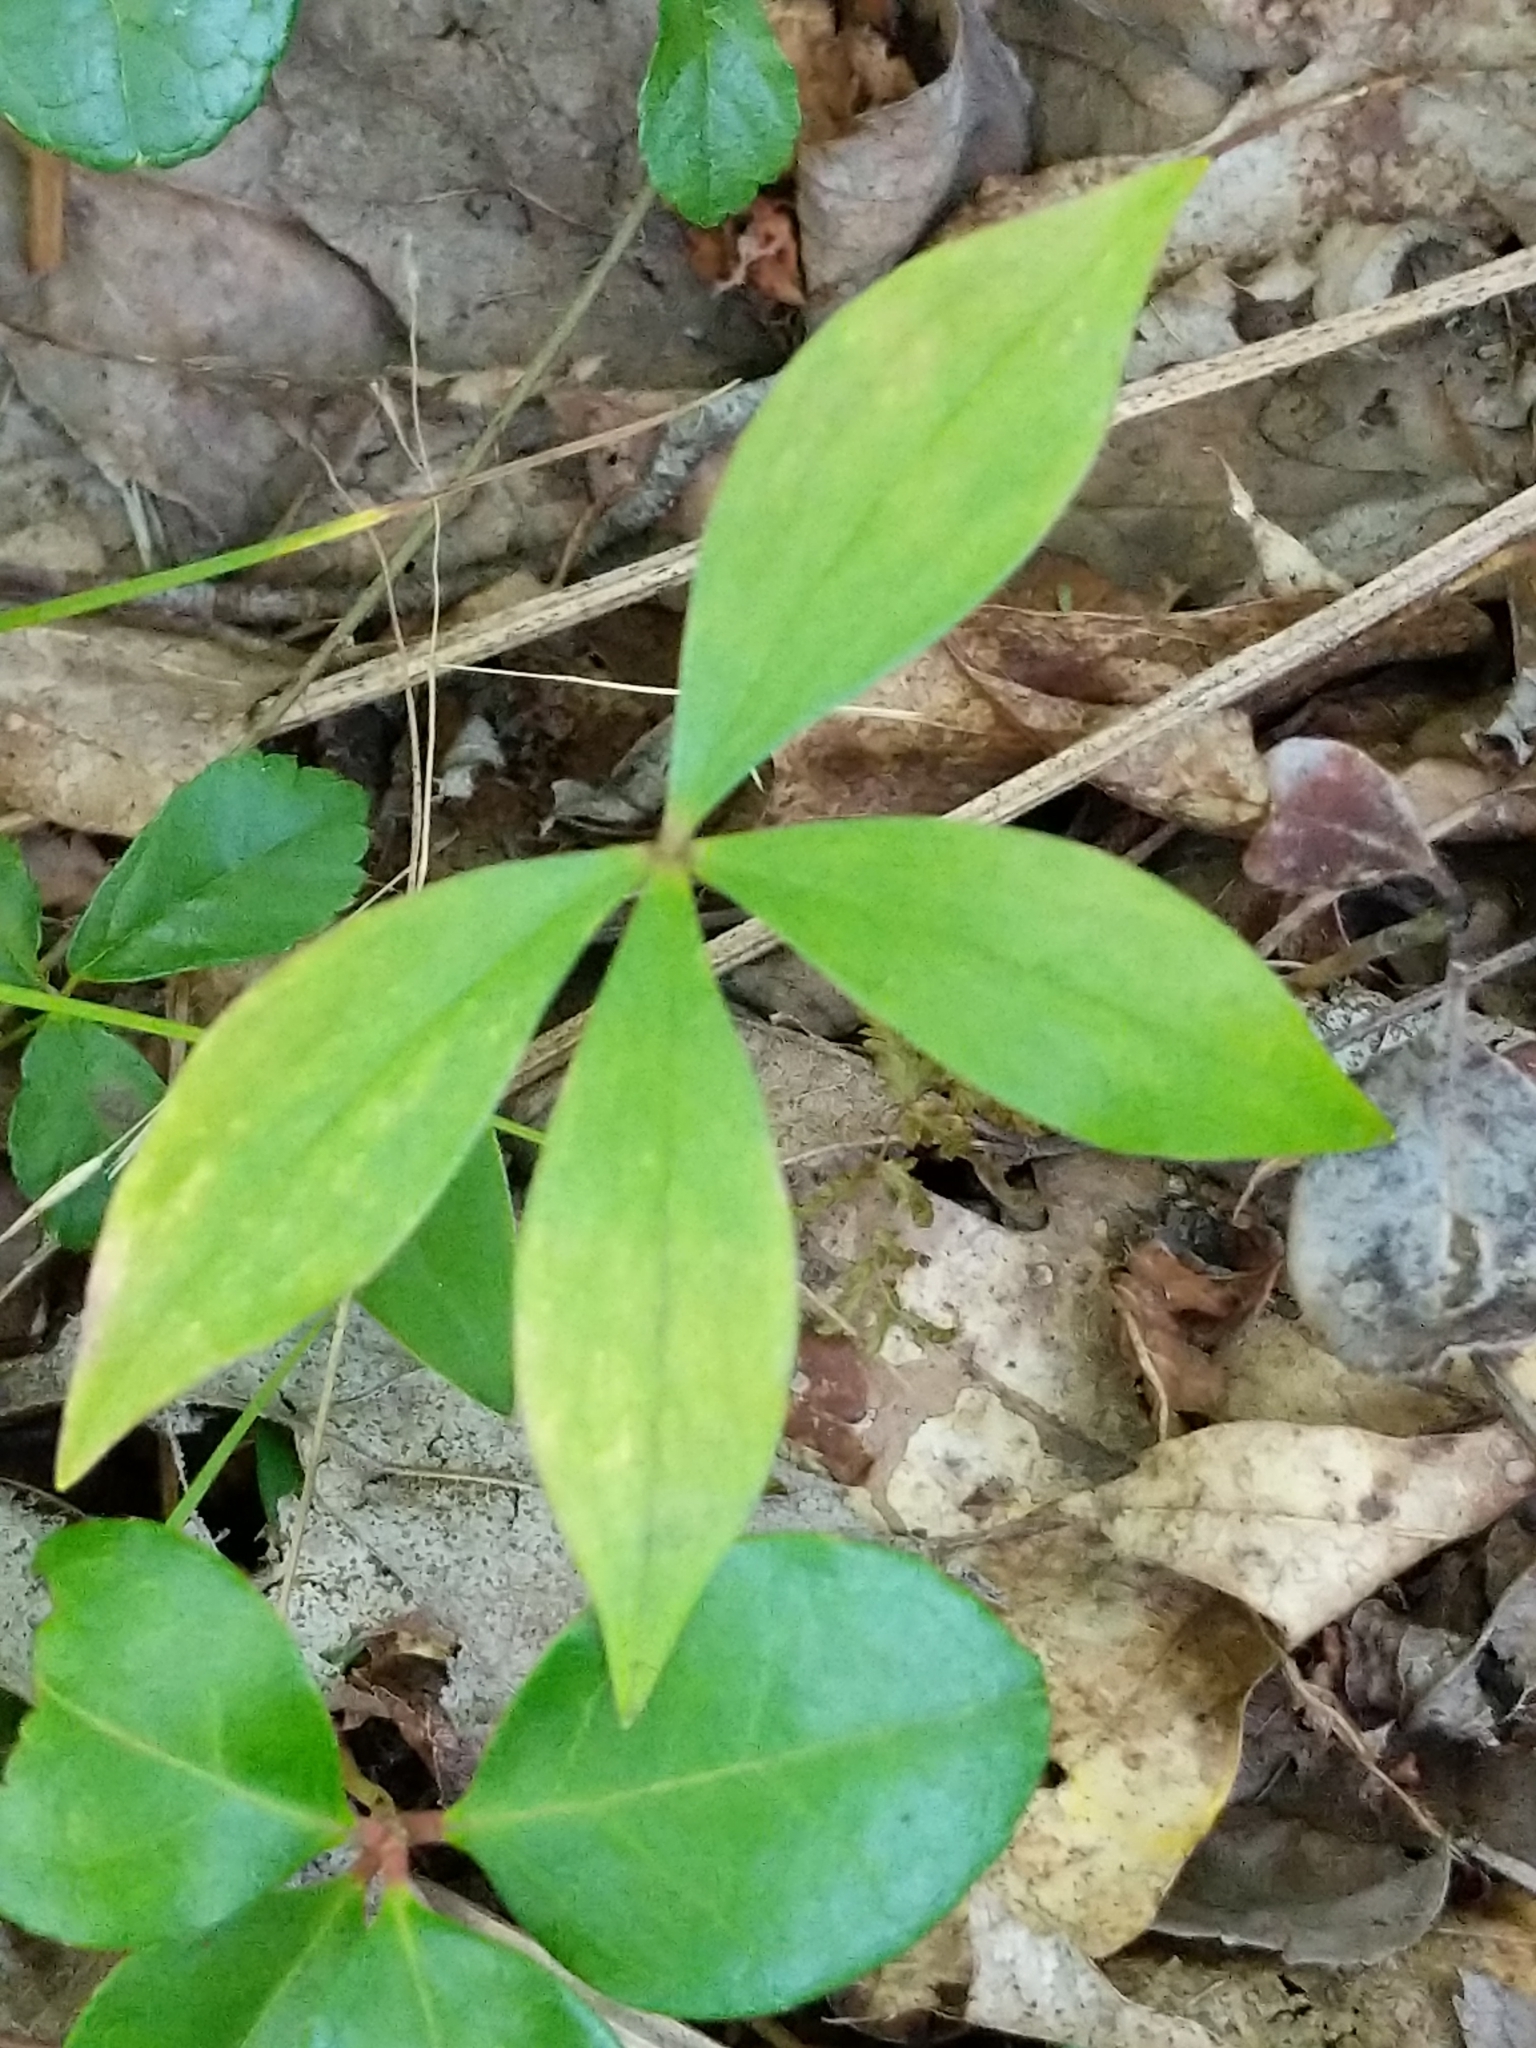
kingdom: Plantae
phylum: Tracheophyta
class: Liliopsida
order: Liliales
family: Liliaceae
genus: Medeola
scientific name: Medeola virginiana
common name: Indian cucumber-root
